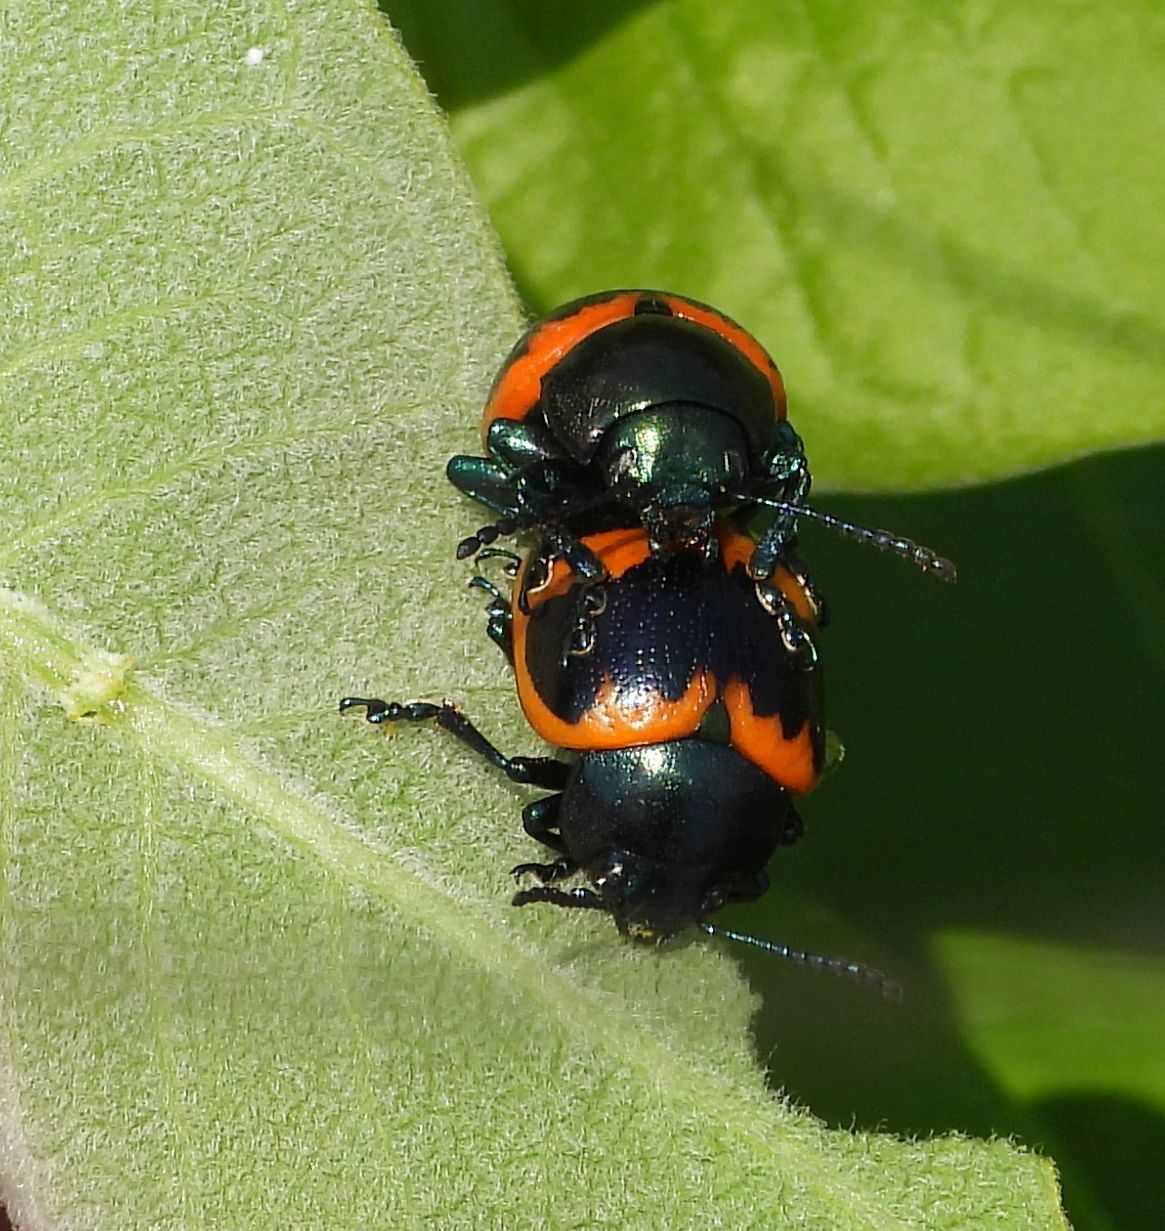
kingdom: Animalia
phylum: Arthropoda
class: Insecta
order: Coleoptera
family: Chrysomelidae
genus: Labidomera
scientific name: Labidomera clivicollis
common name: Swamp milkweed leaf beetle
